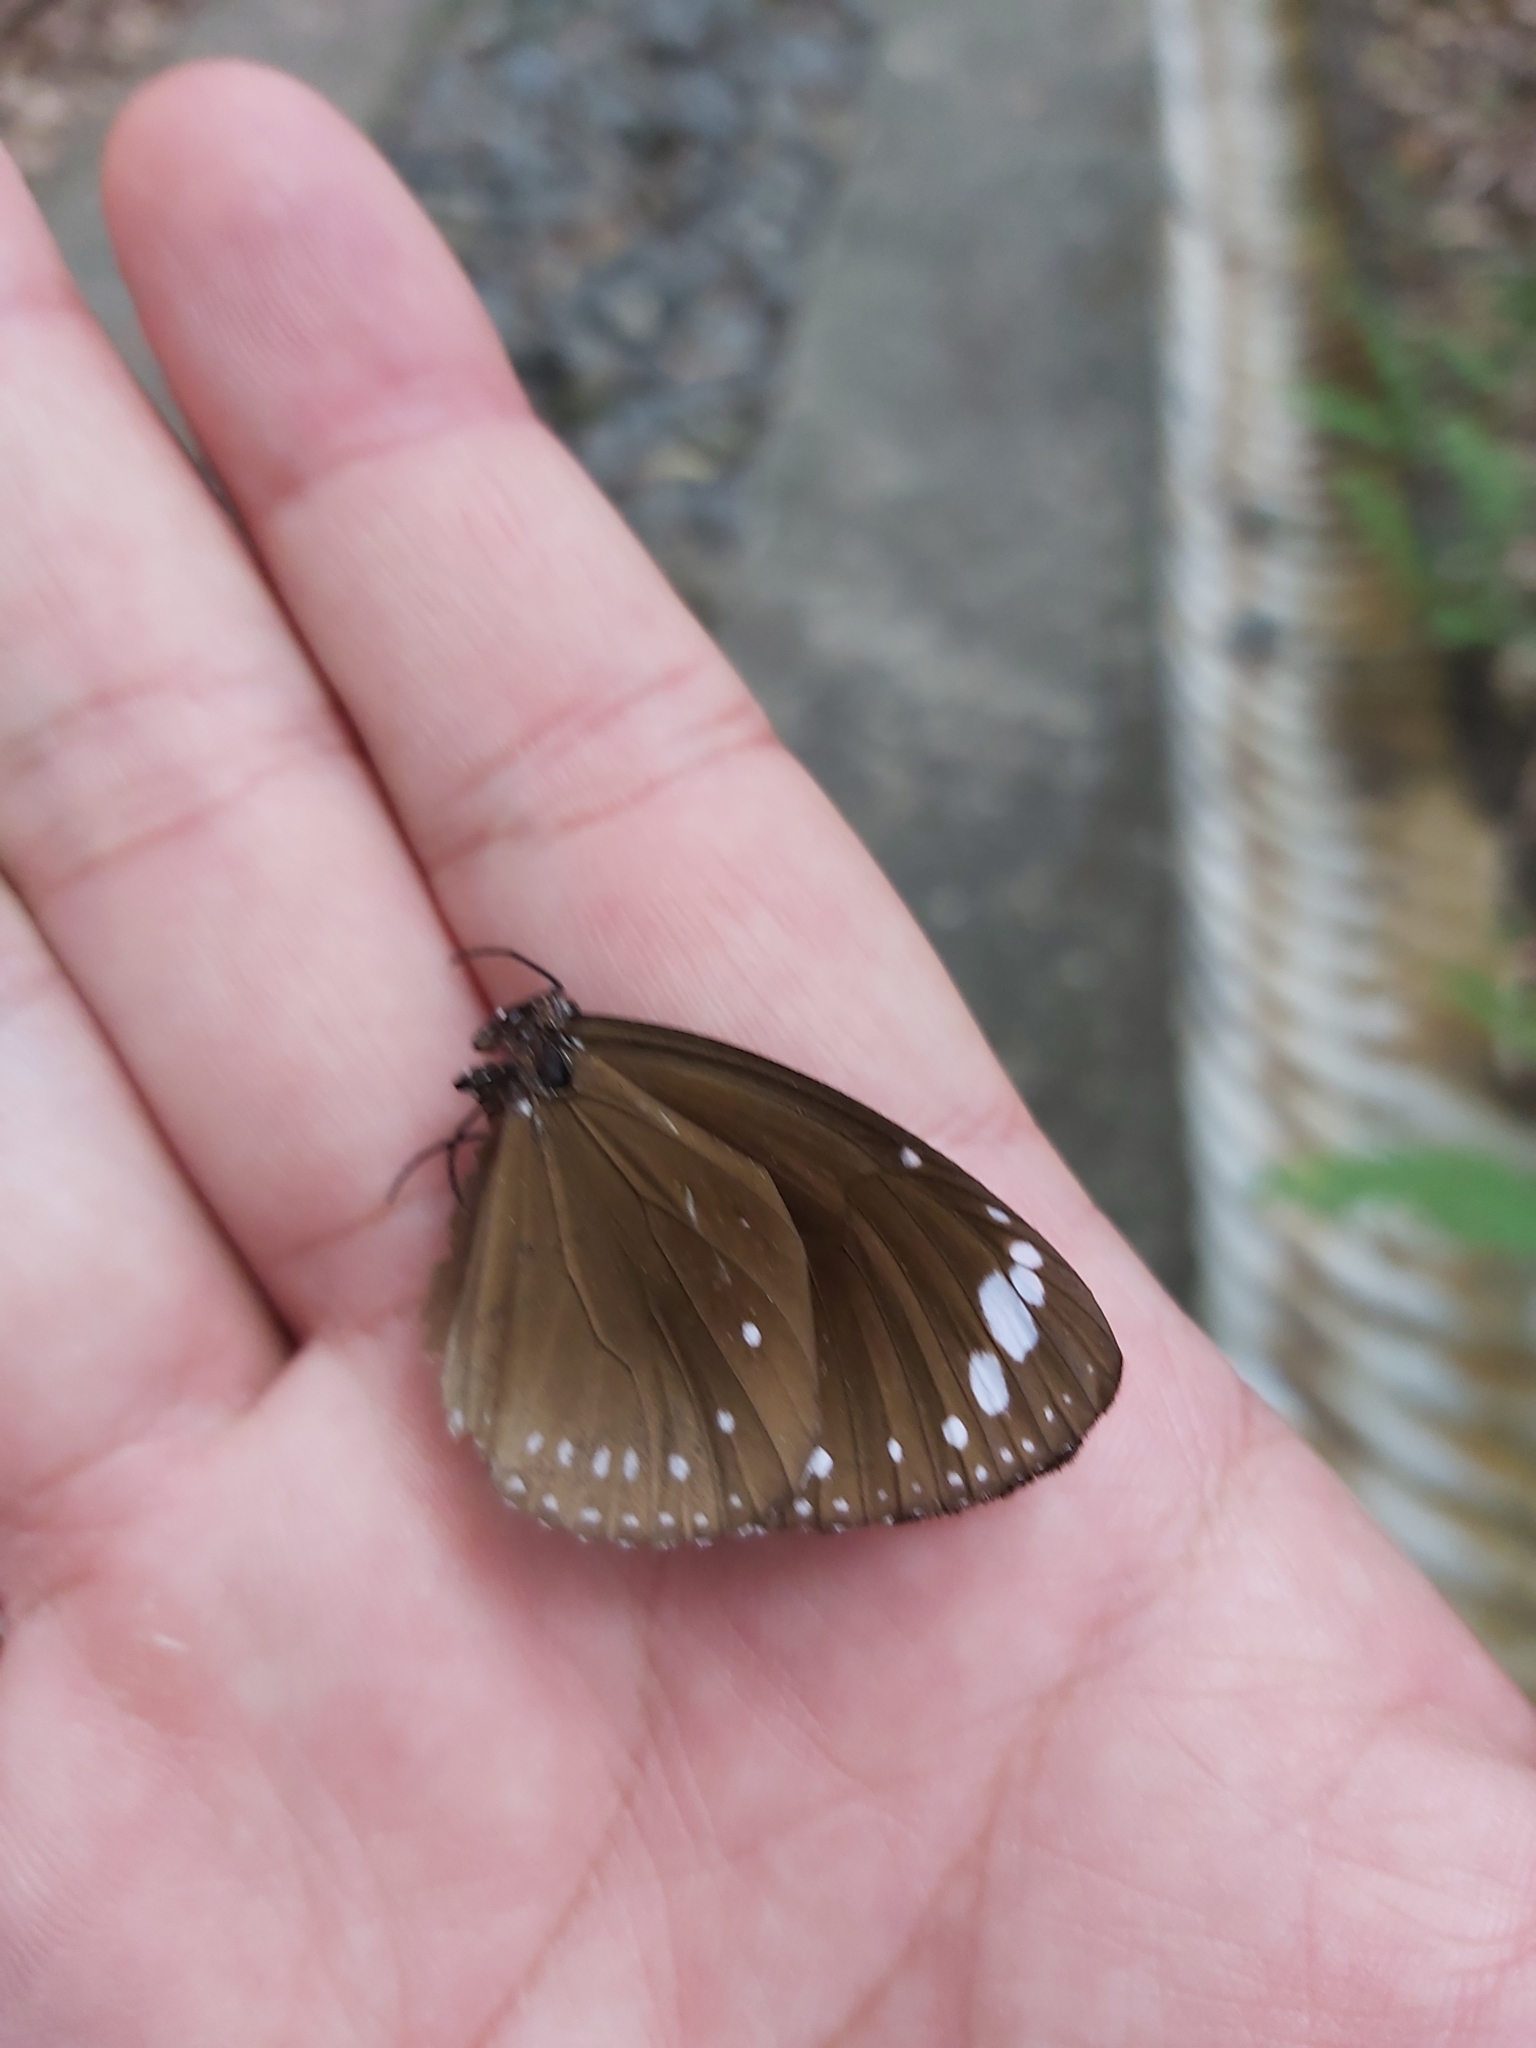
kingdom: Animalia
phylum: Arthropoda
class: Insecta
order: Lepidoptera
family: Nymphalidae
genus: Euploea
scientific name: Euploea tulliolus
